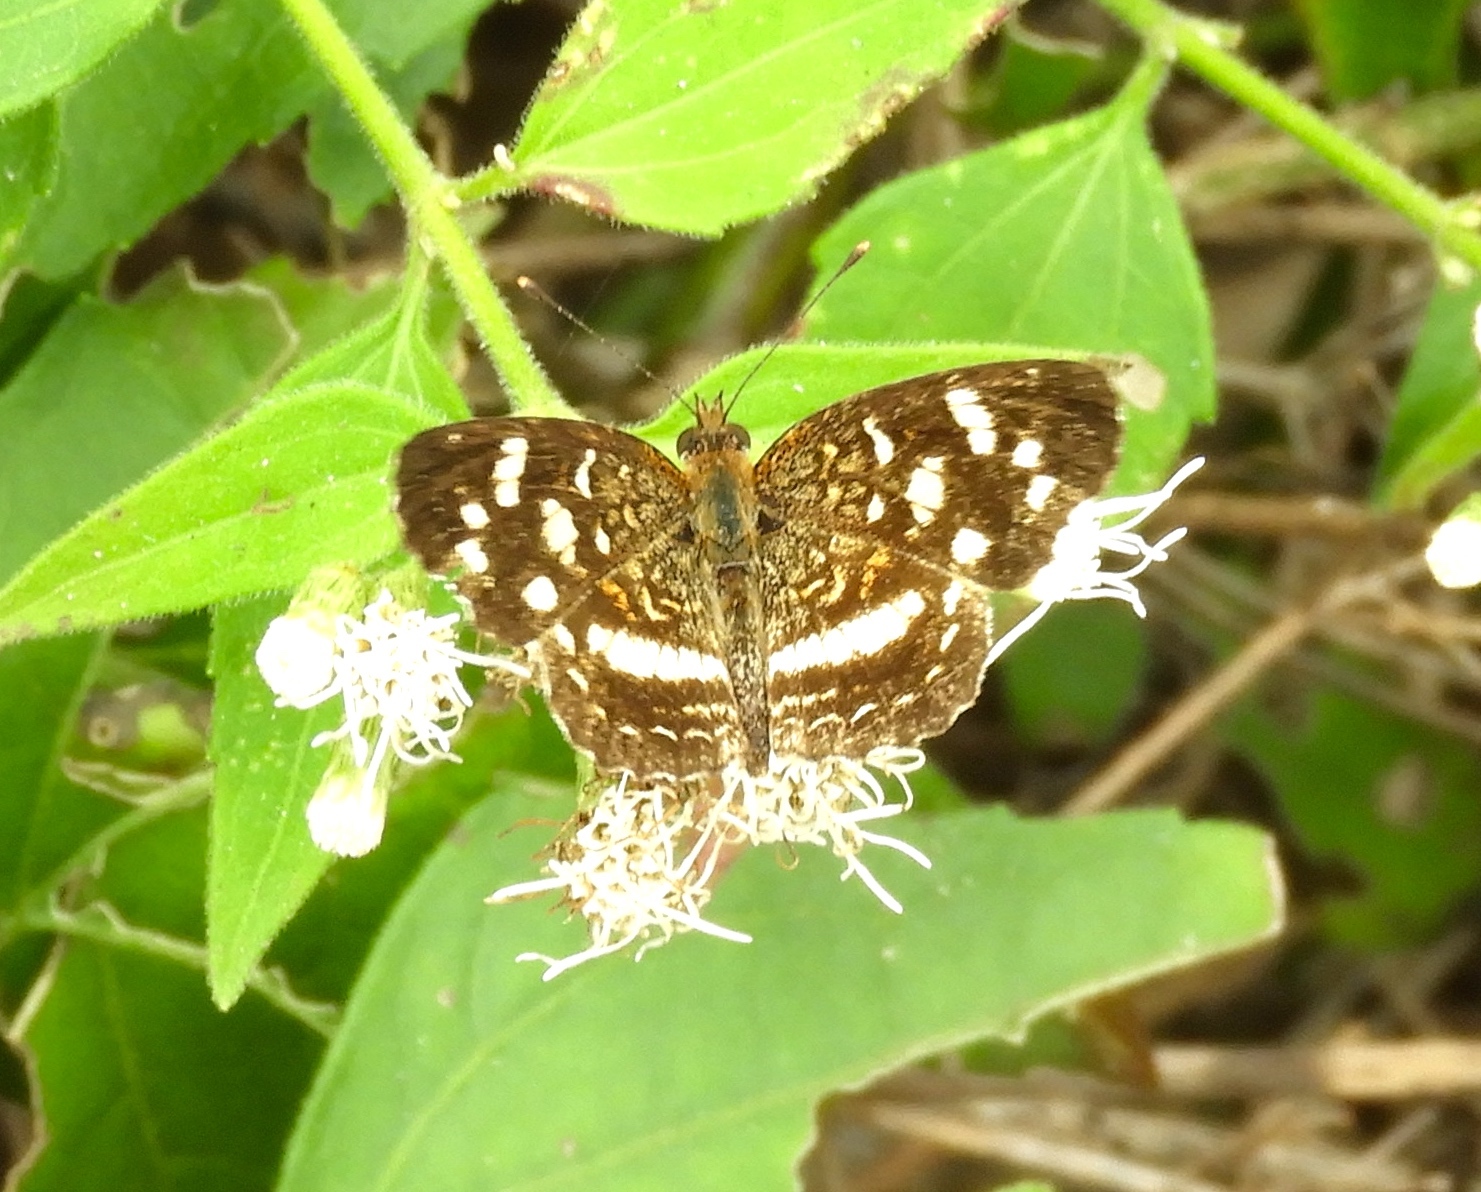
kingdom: Animalia
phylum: Arthropoda
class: Insecta
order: Lepidoptera
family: Nymphalidae
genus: Anthanassa
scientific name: Anthanassa tulcis
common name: Pale-banded crescent
